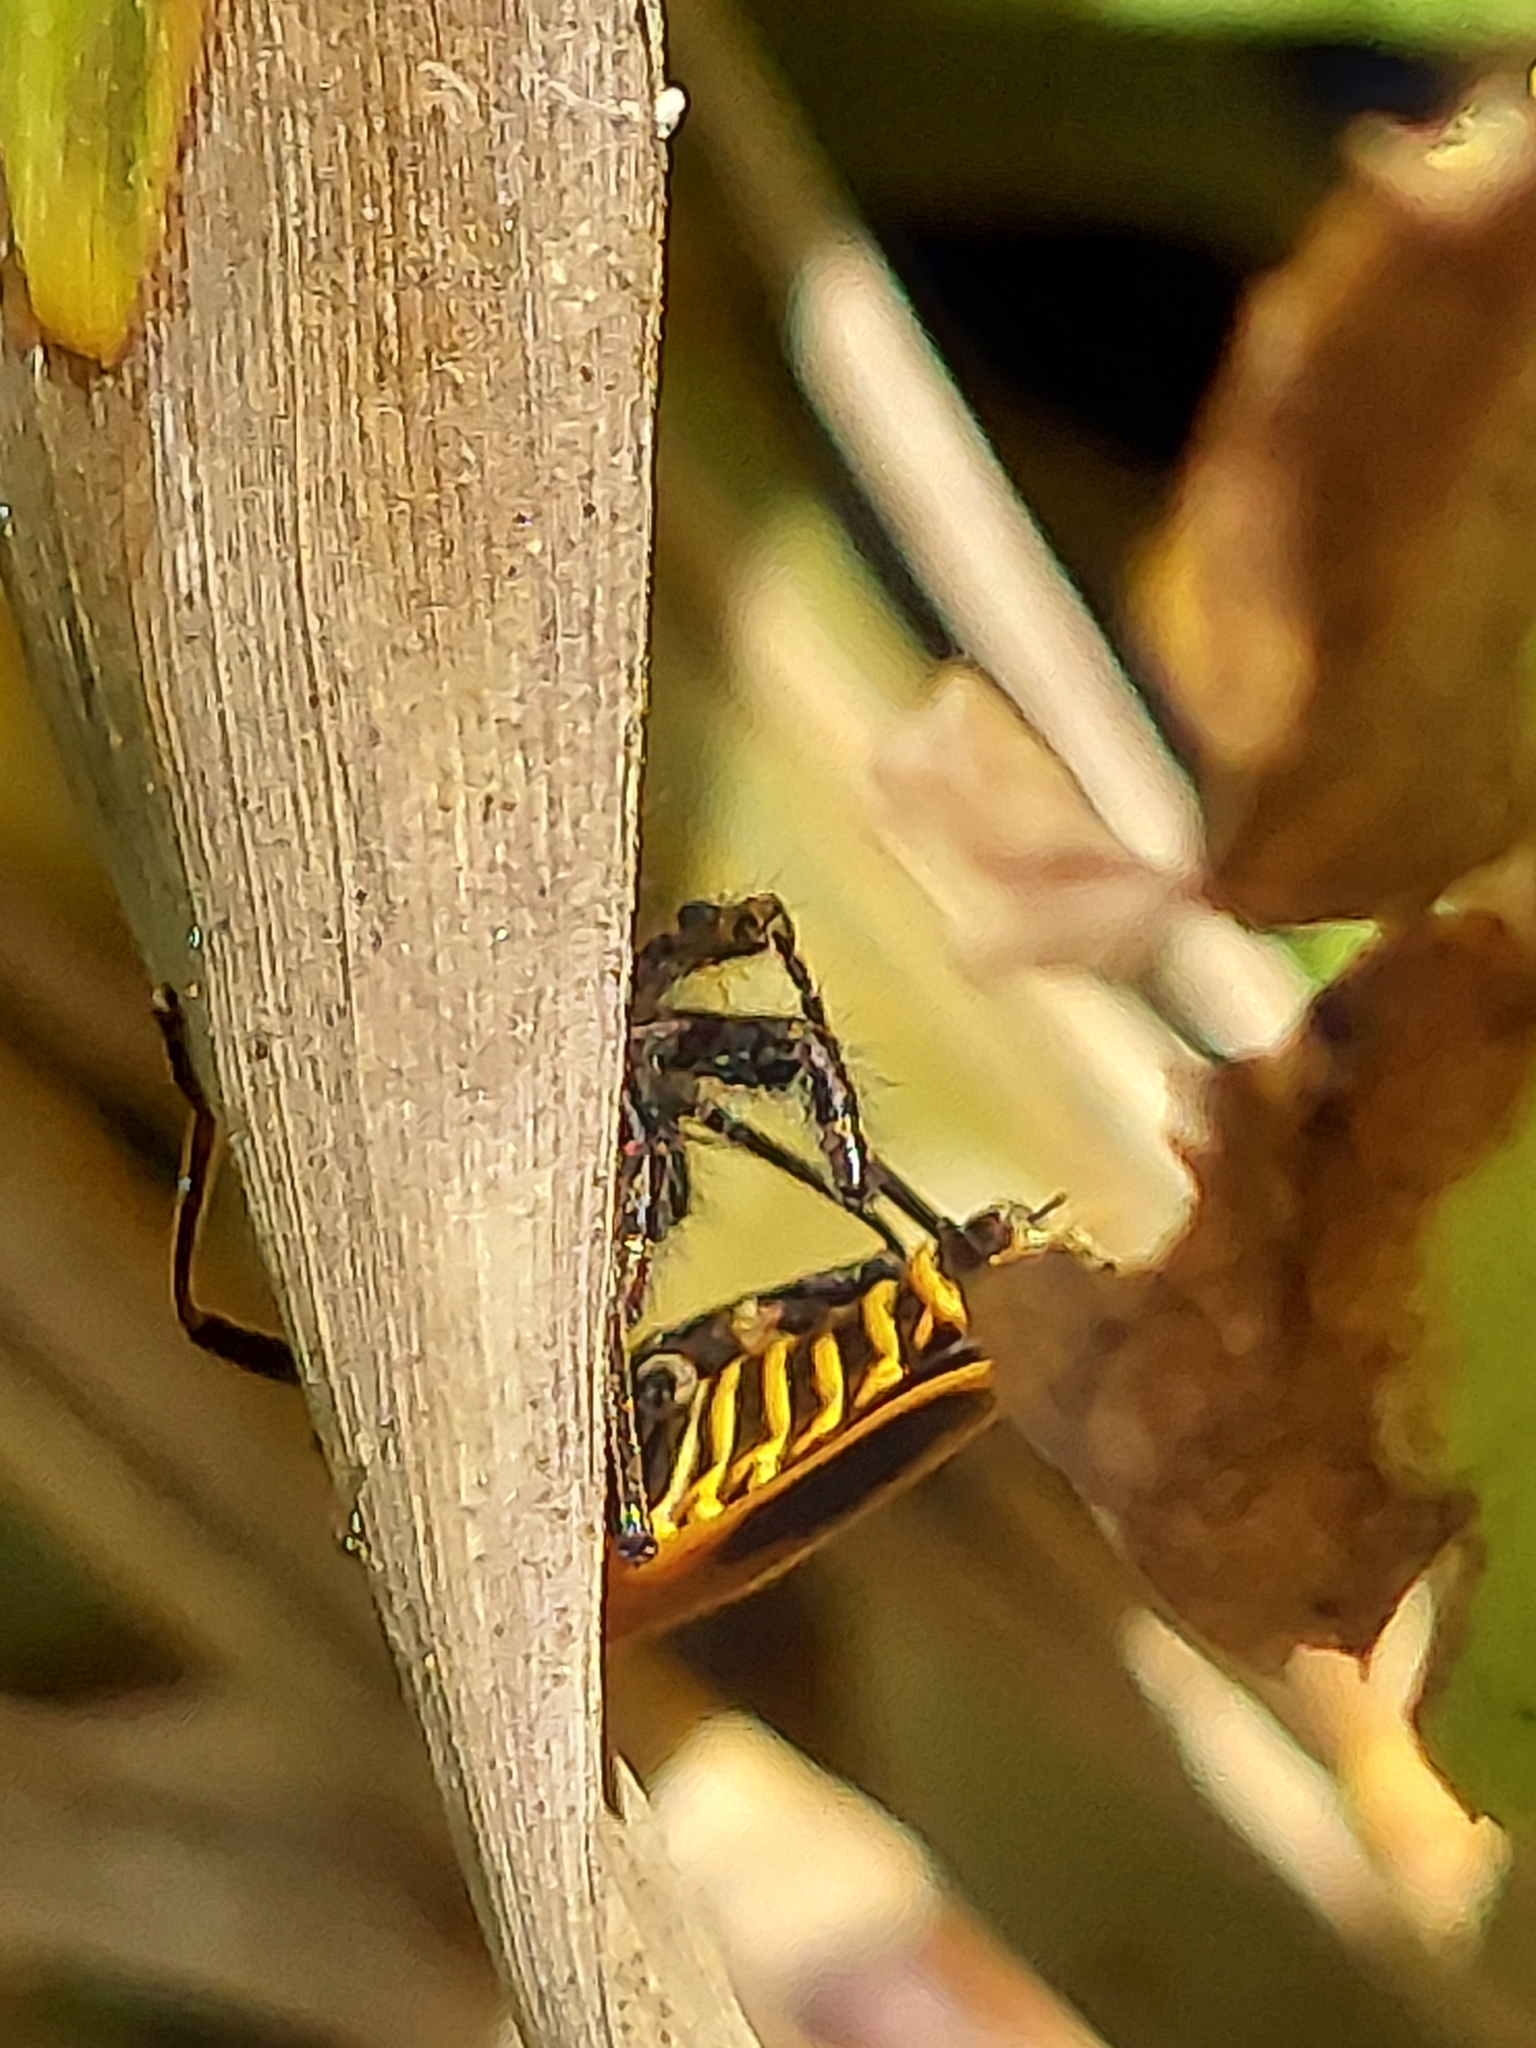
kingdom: Animalia
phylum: Arthropoda
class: Arachnida
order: Araneae
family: Salticidae
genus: Phidippus
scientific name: Phidippus audax
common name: Bold jumper
